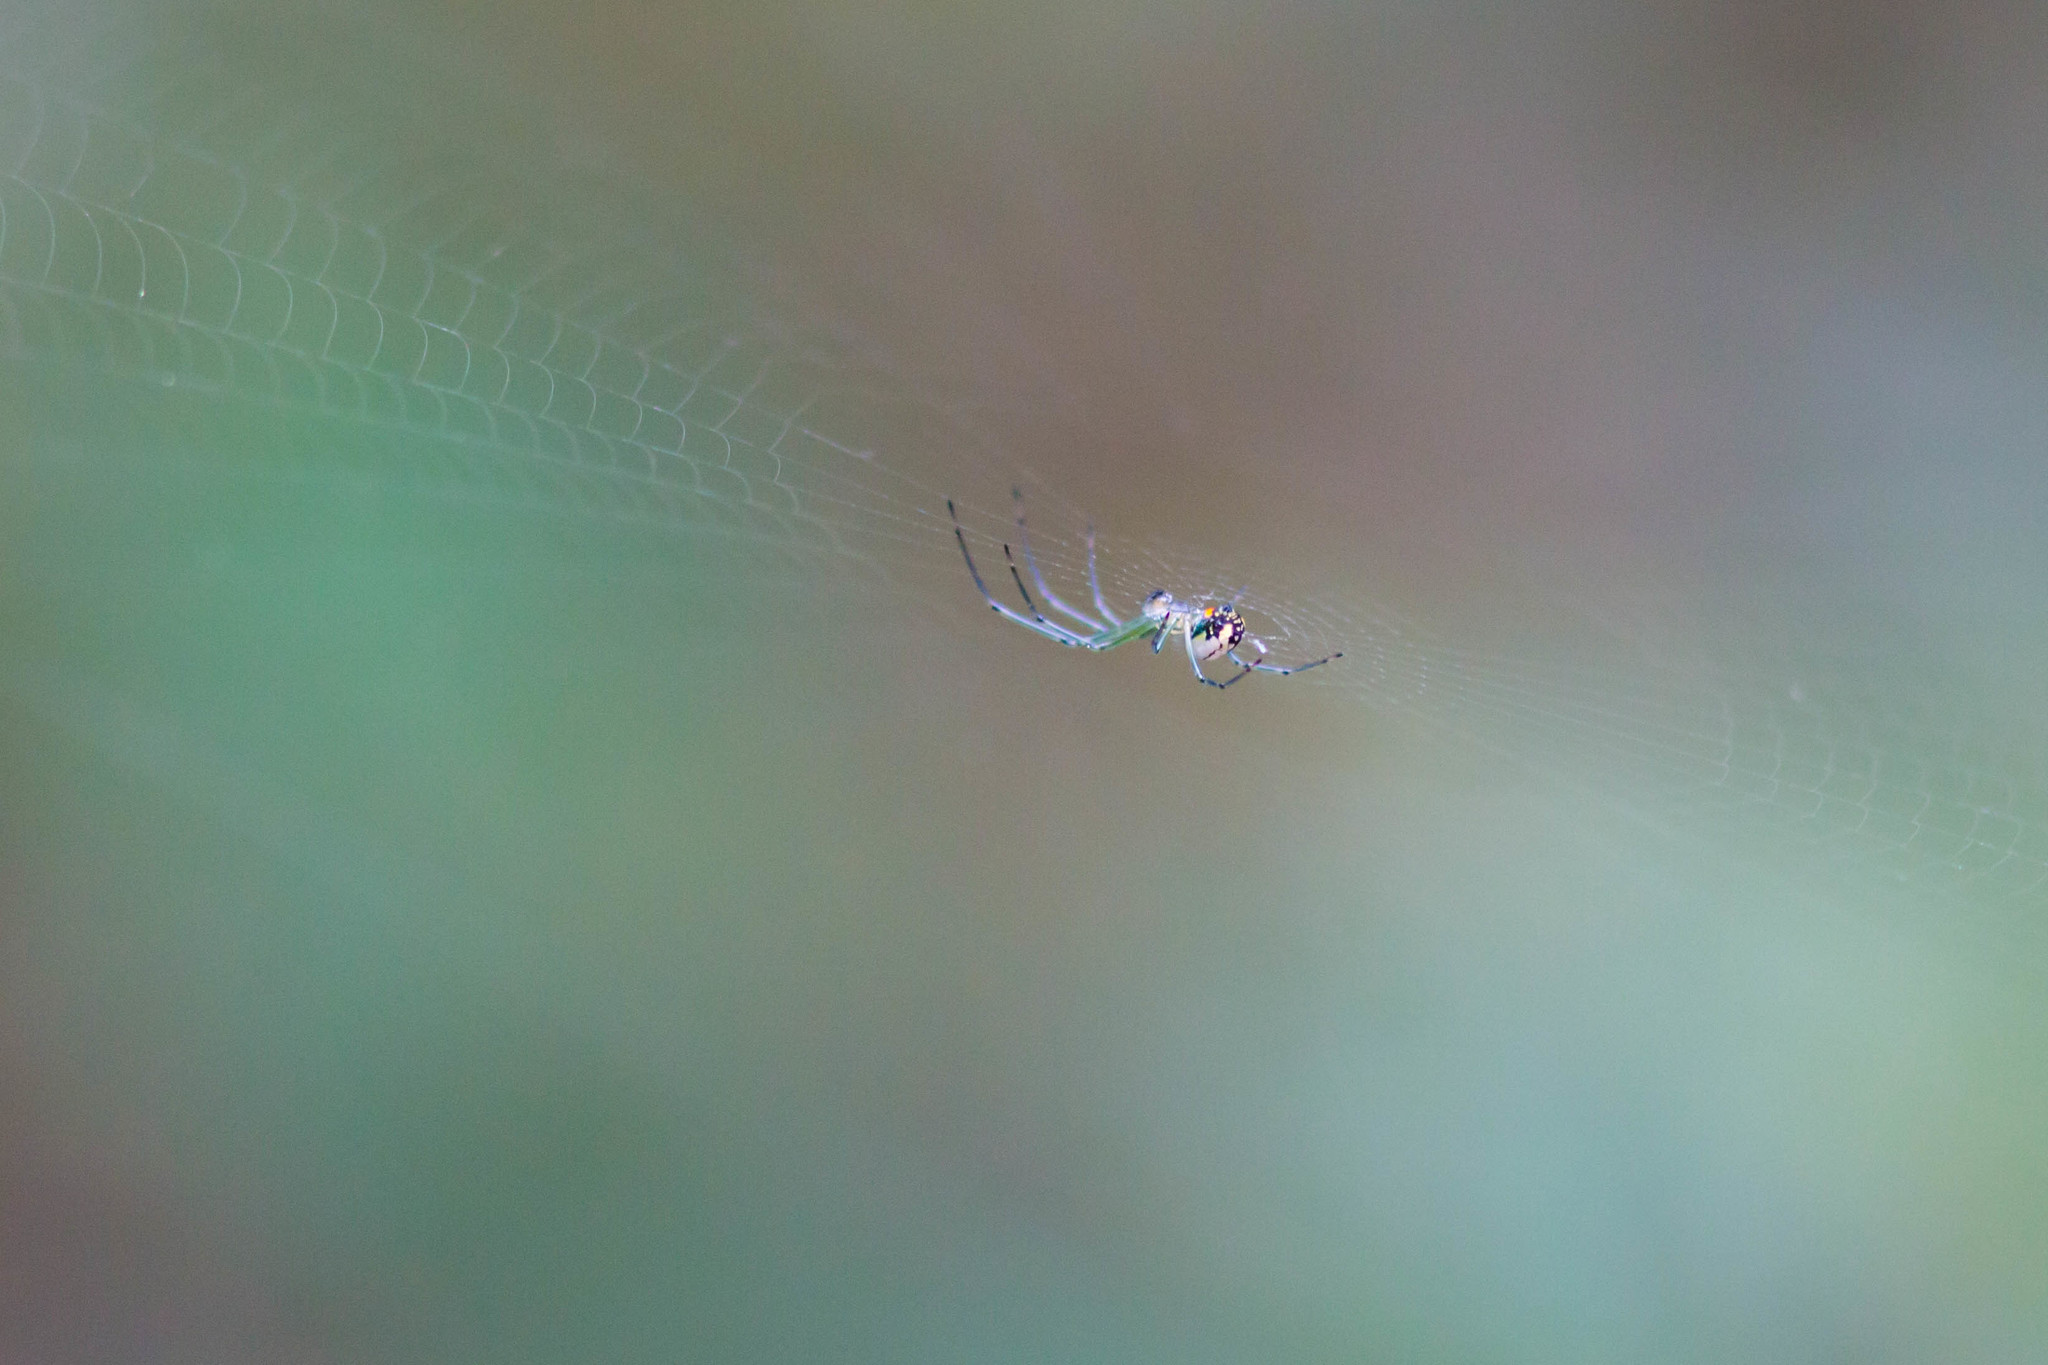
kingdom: Animalia
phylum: Arthropoda
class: Arachnida
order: Araneae
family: Tetragnathidae
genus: Leucauge
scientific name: Leucauge venusta
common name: Longjawed orb weavers
